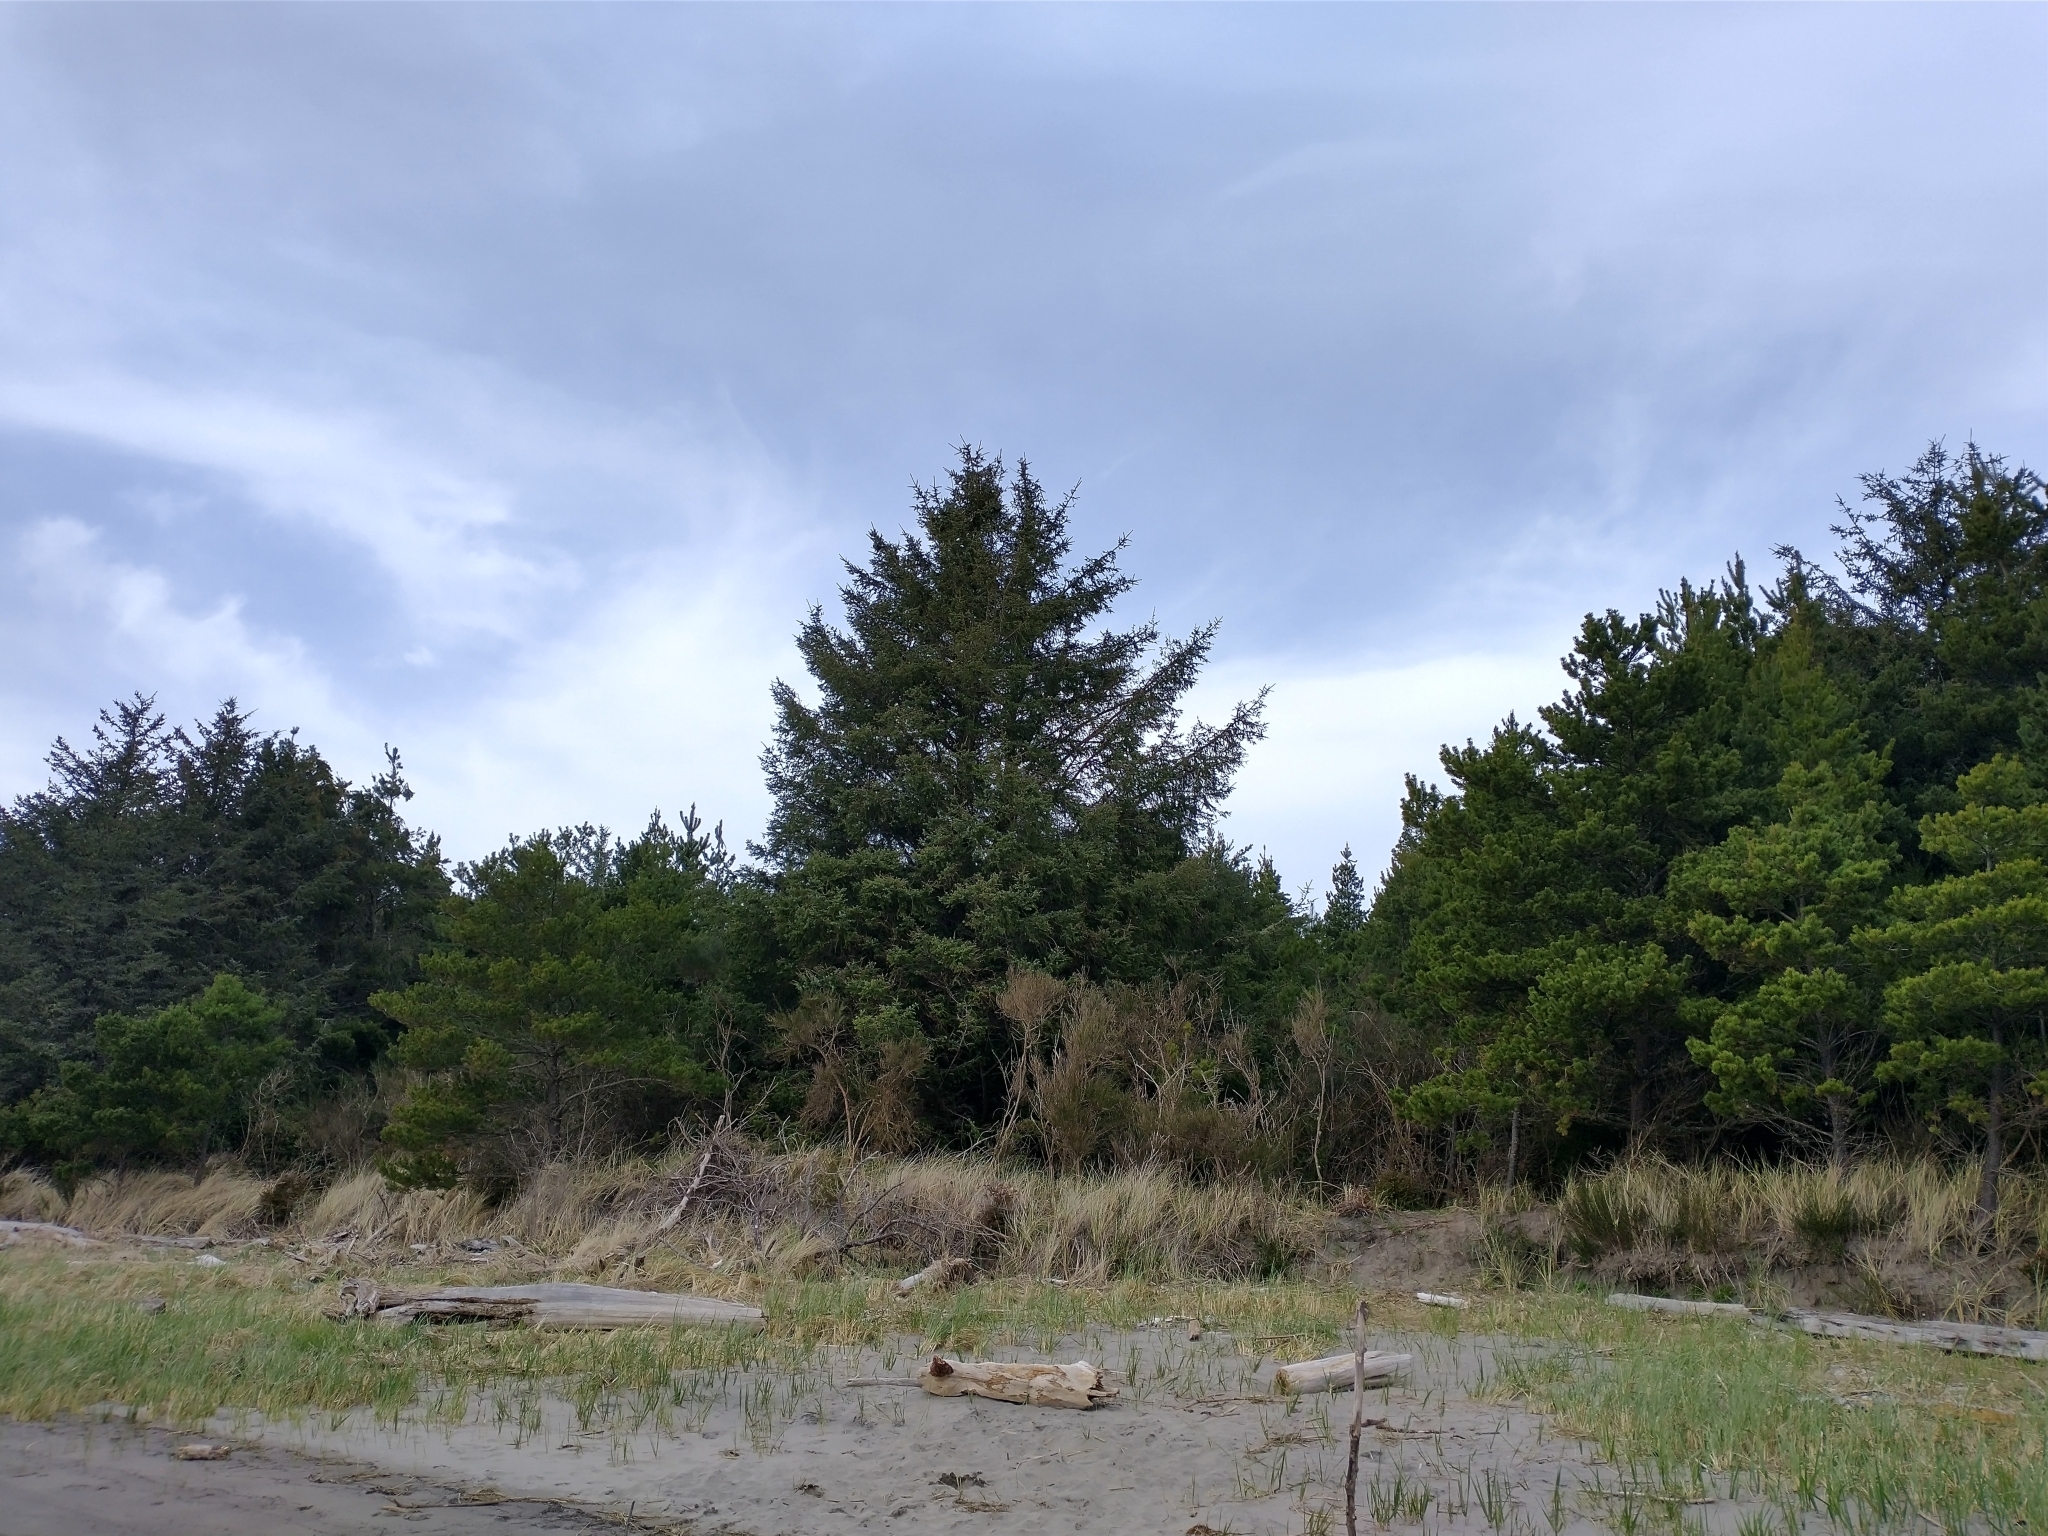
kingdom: Plantae
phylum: Tracheophyta
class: Pinopsida
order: Pinales
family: Pinaceae
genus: Picea
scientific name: Picea sitchensis
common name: Sitka spruce
